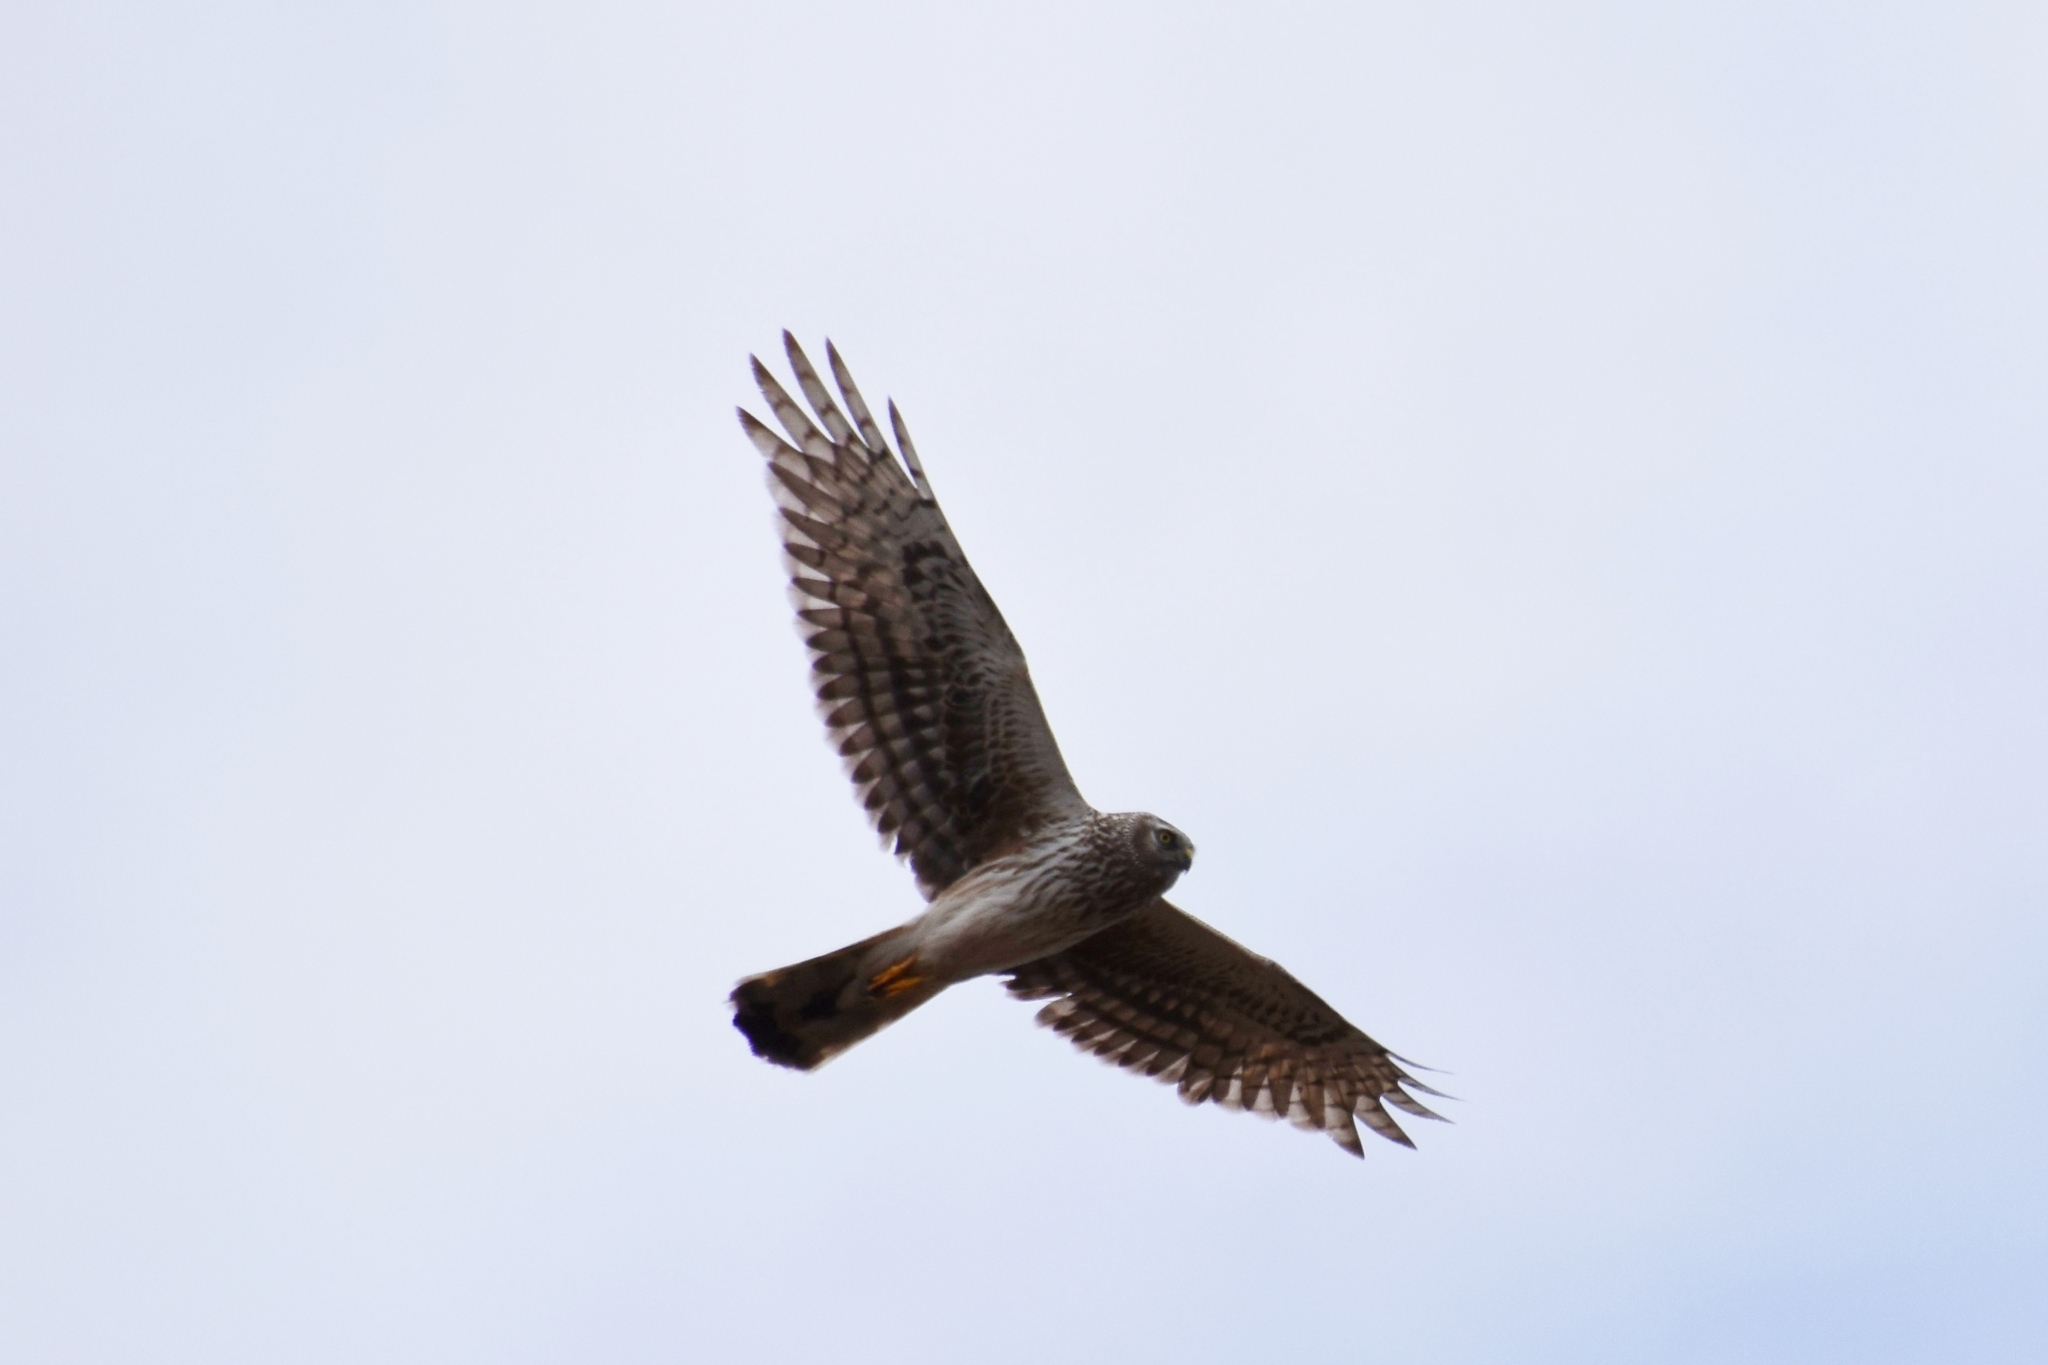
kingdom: Animalia
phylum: Chordata
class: Aves
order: Accipitriformes
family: Accipitridae
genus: Circus
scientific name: Circus cyaneus
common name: Hen harrier
